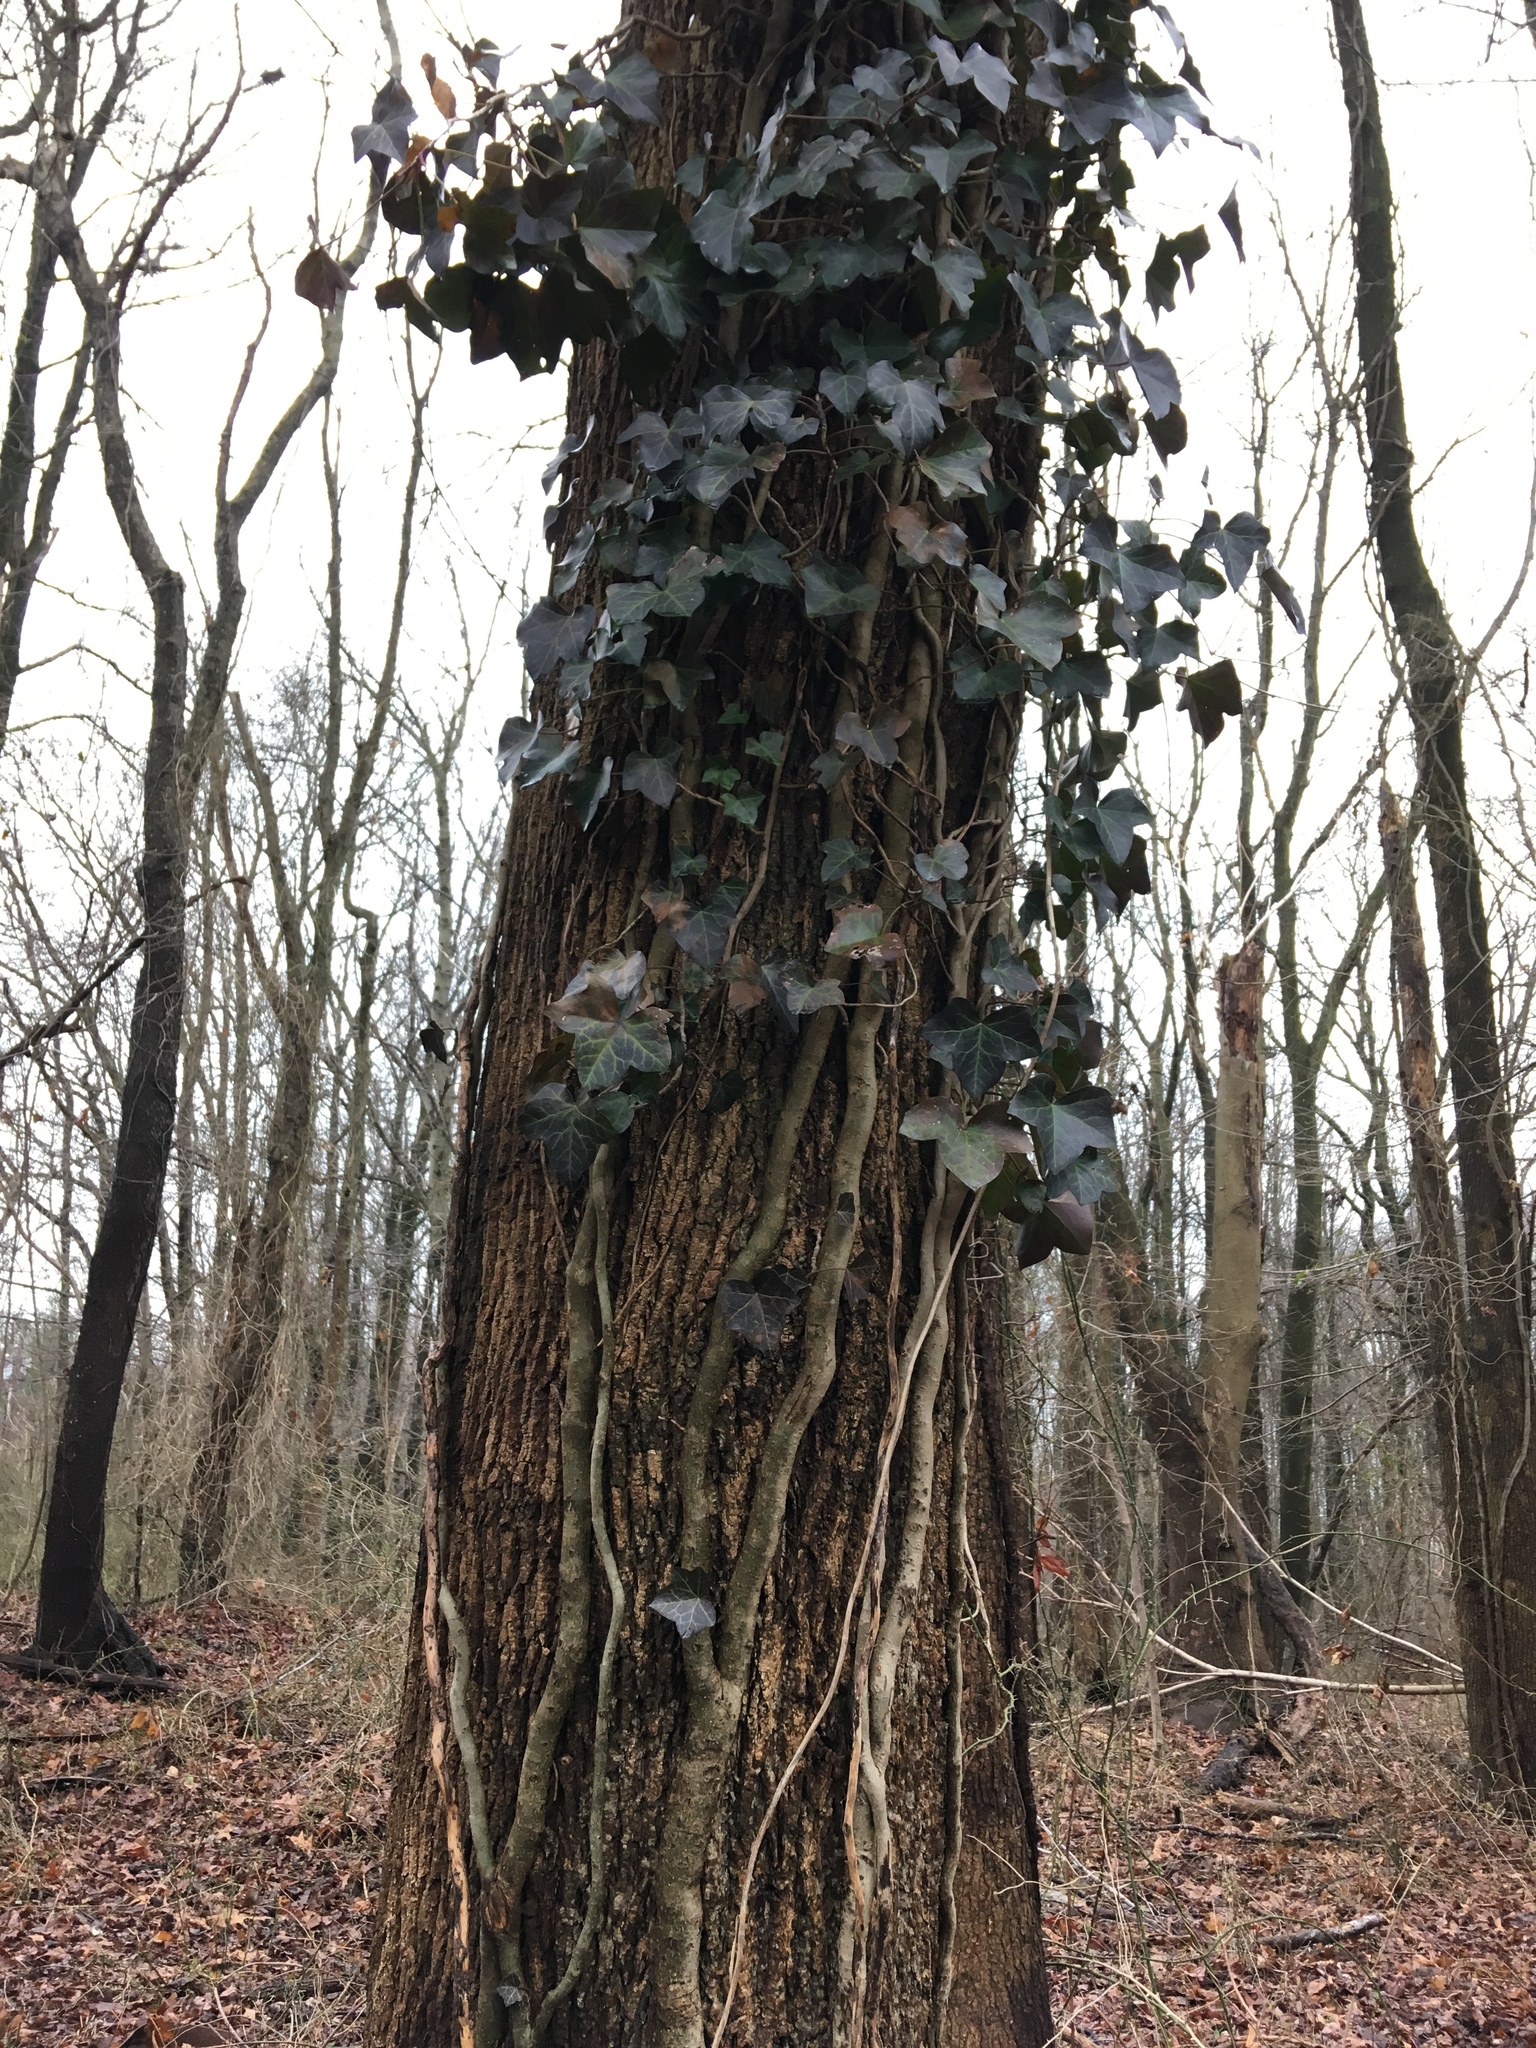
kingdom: Plantae
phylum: Tracheophyta
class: Magnoliopsida
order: Apiales
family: Araliaceae
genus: Hedera
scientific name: Hedera helix
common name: Ivy
